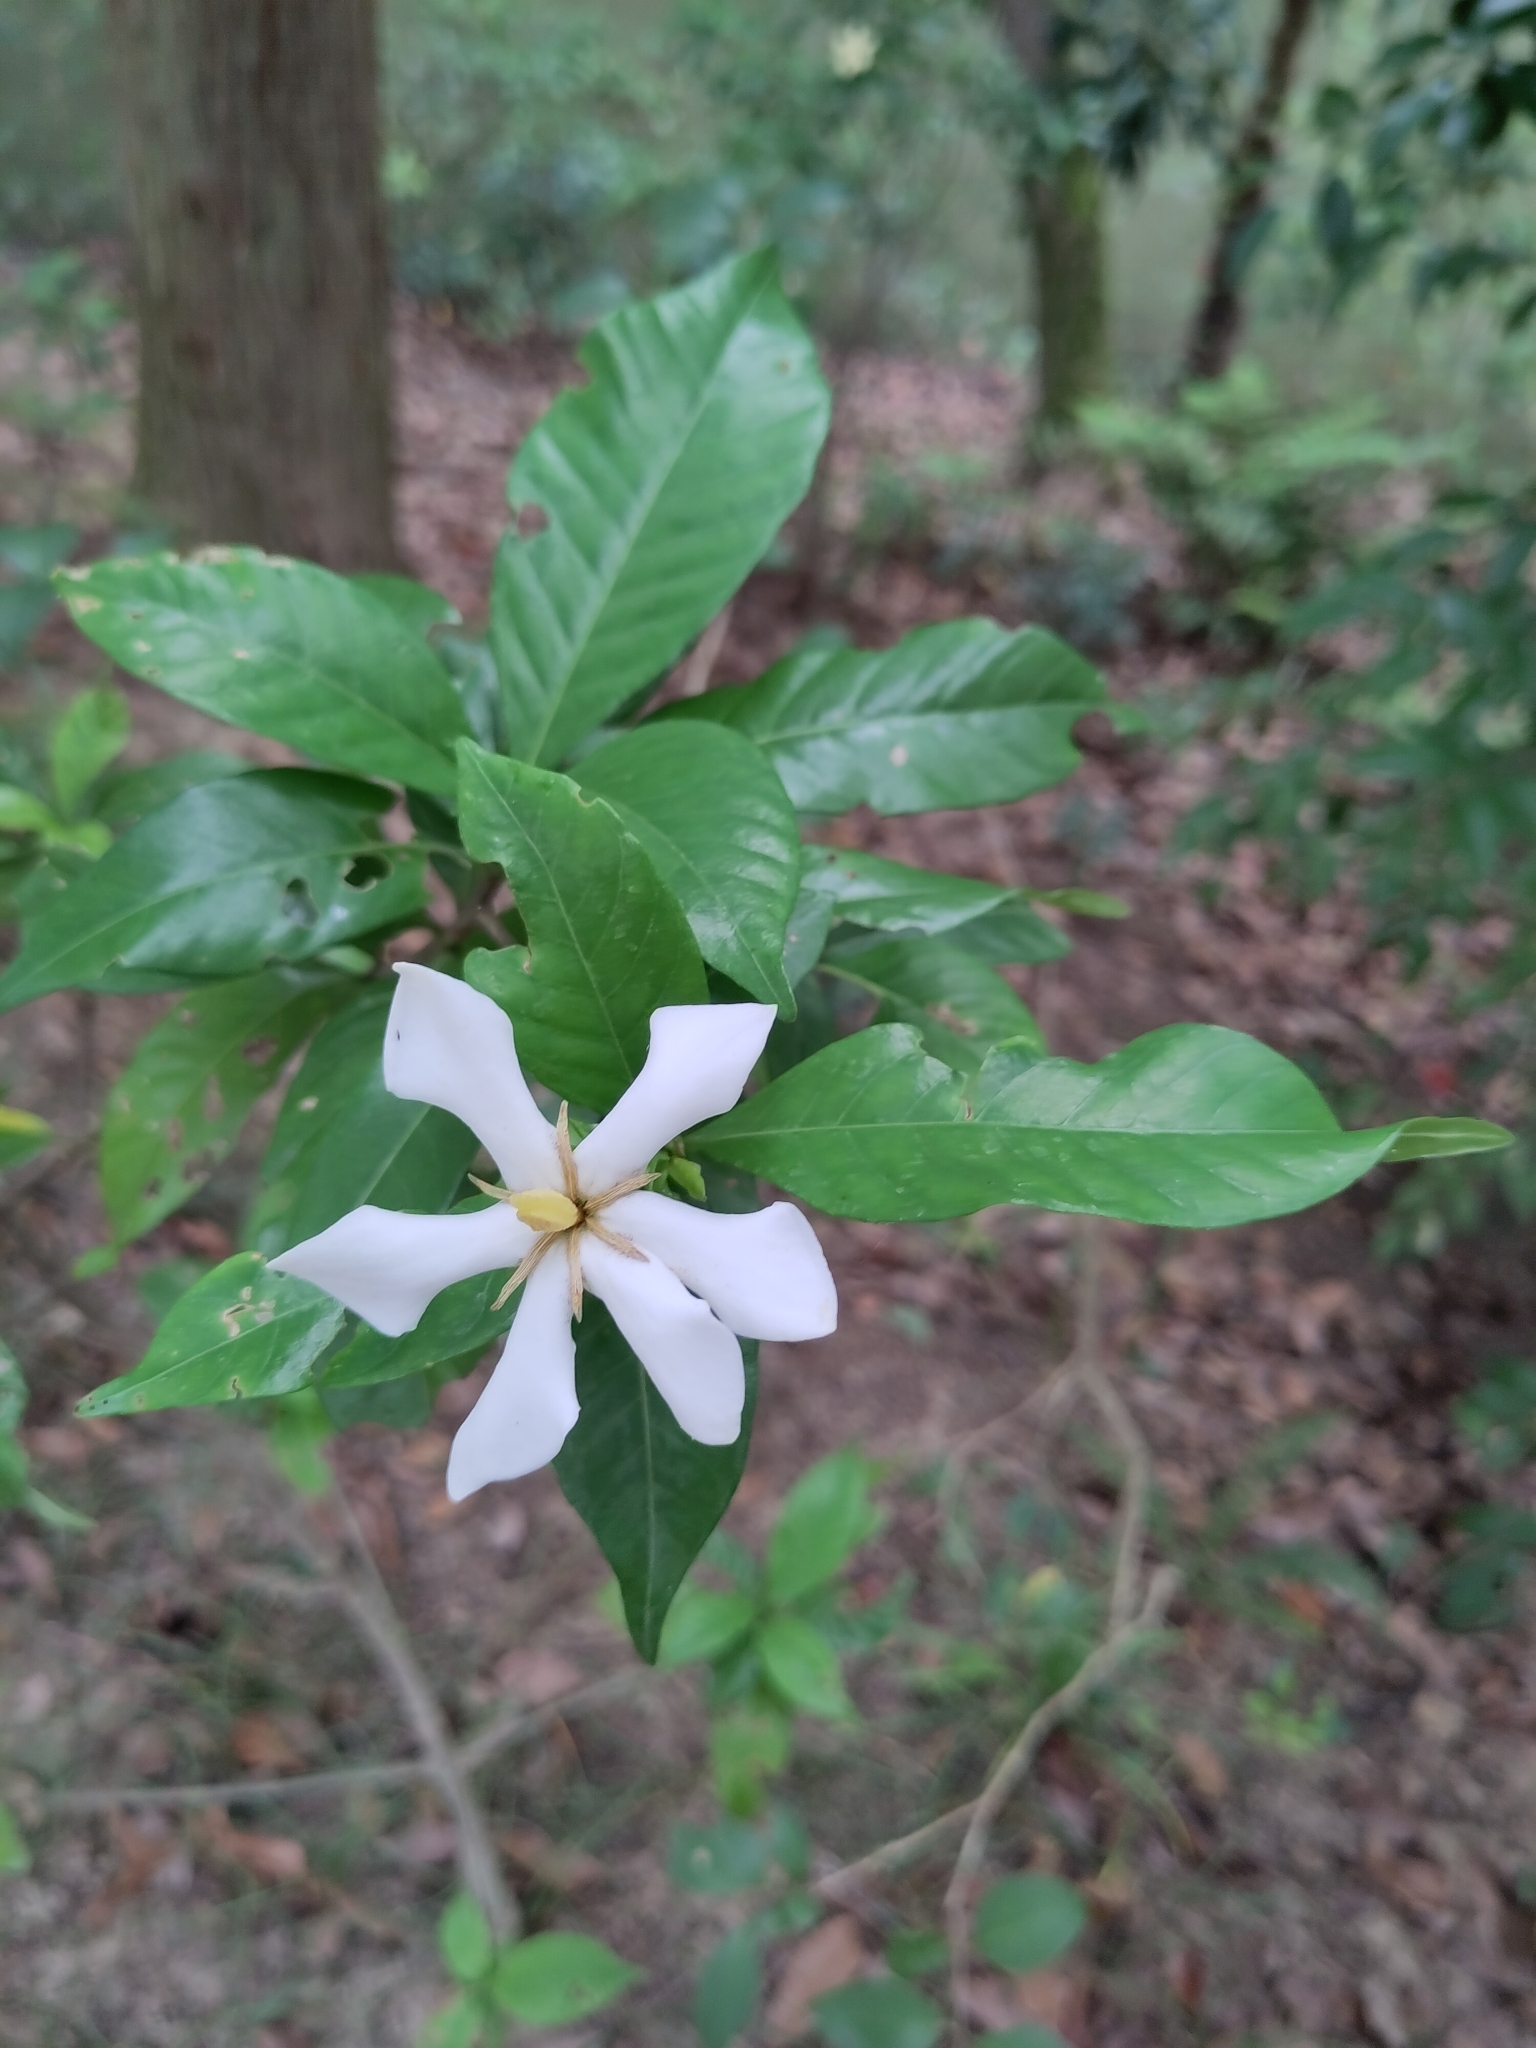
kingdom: Plantae
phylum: Tracheophyta
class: Magnoliopsida
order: Gentianales
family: Rubiaceae
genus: Gardenia
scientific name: Gardenia jasminoides
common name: Cape-jasmine
